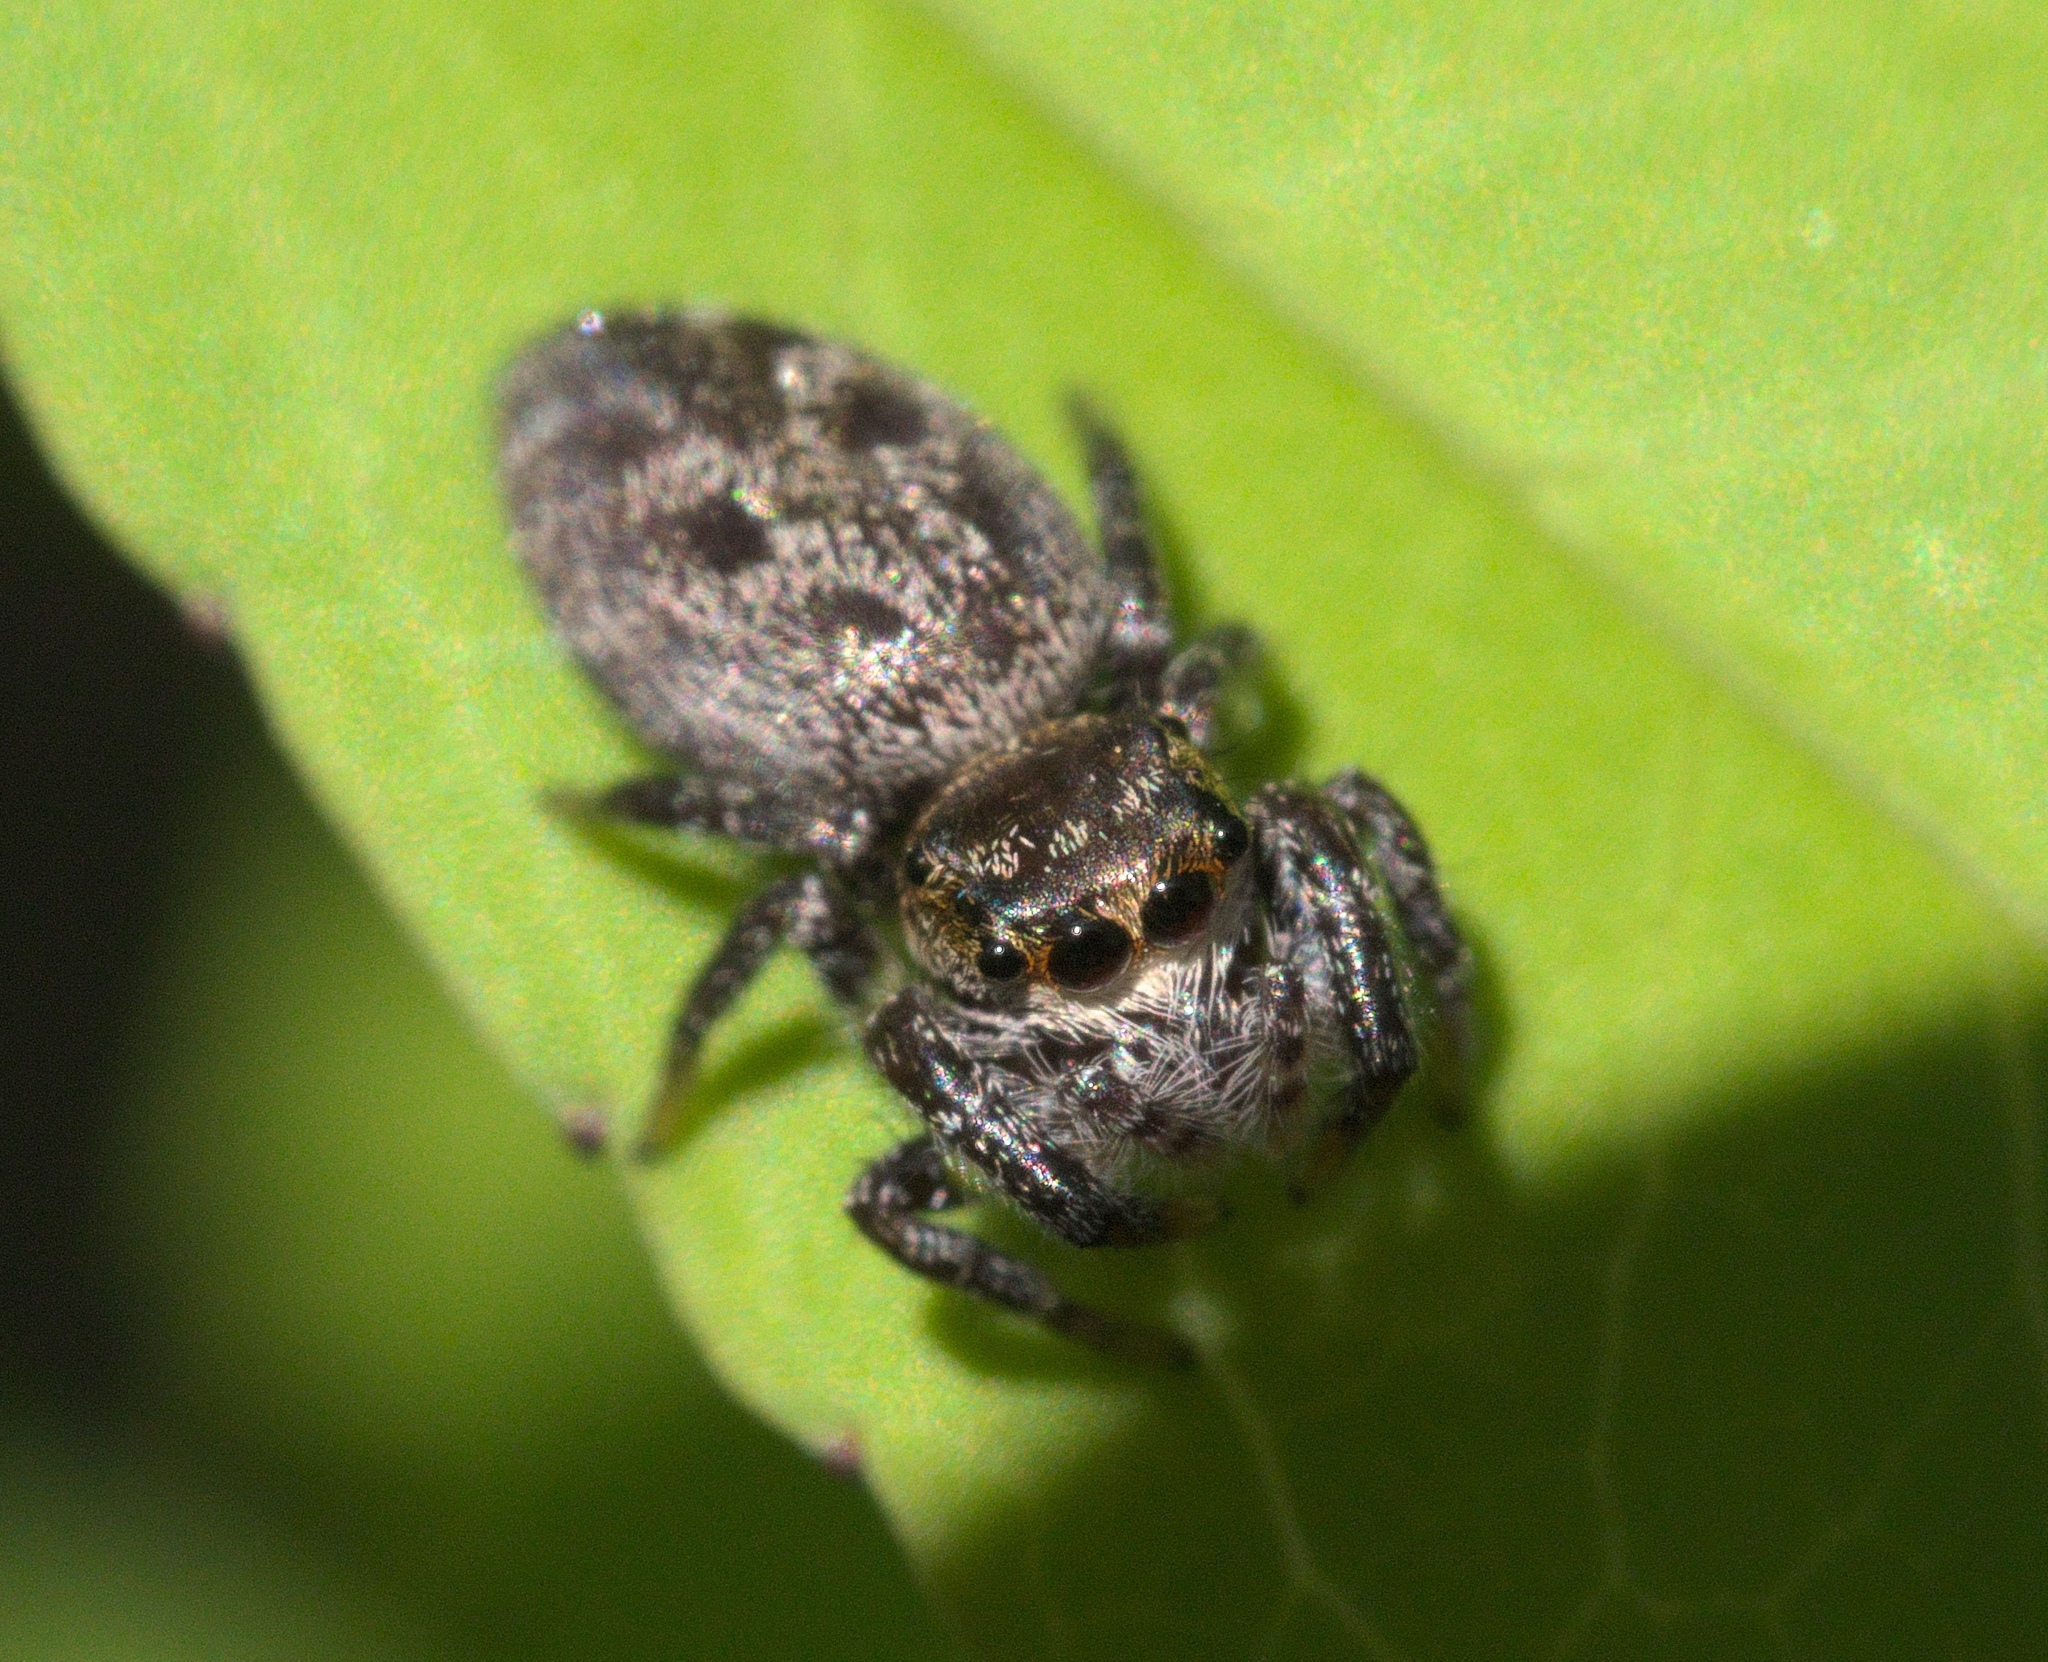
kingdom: Animalia
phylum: Arthropoda
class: Arachnida
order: Araneae
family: Salticidae
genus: Eris
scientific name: Eris militaris
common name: Bronze jumper
